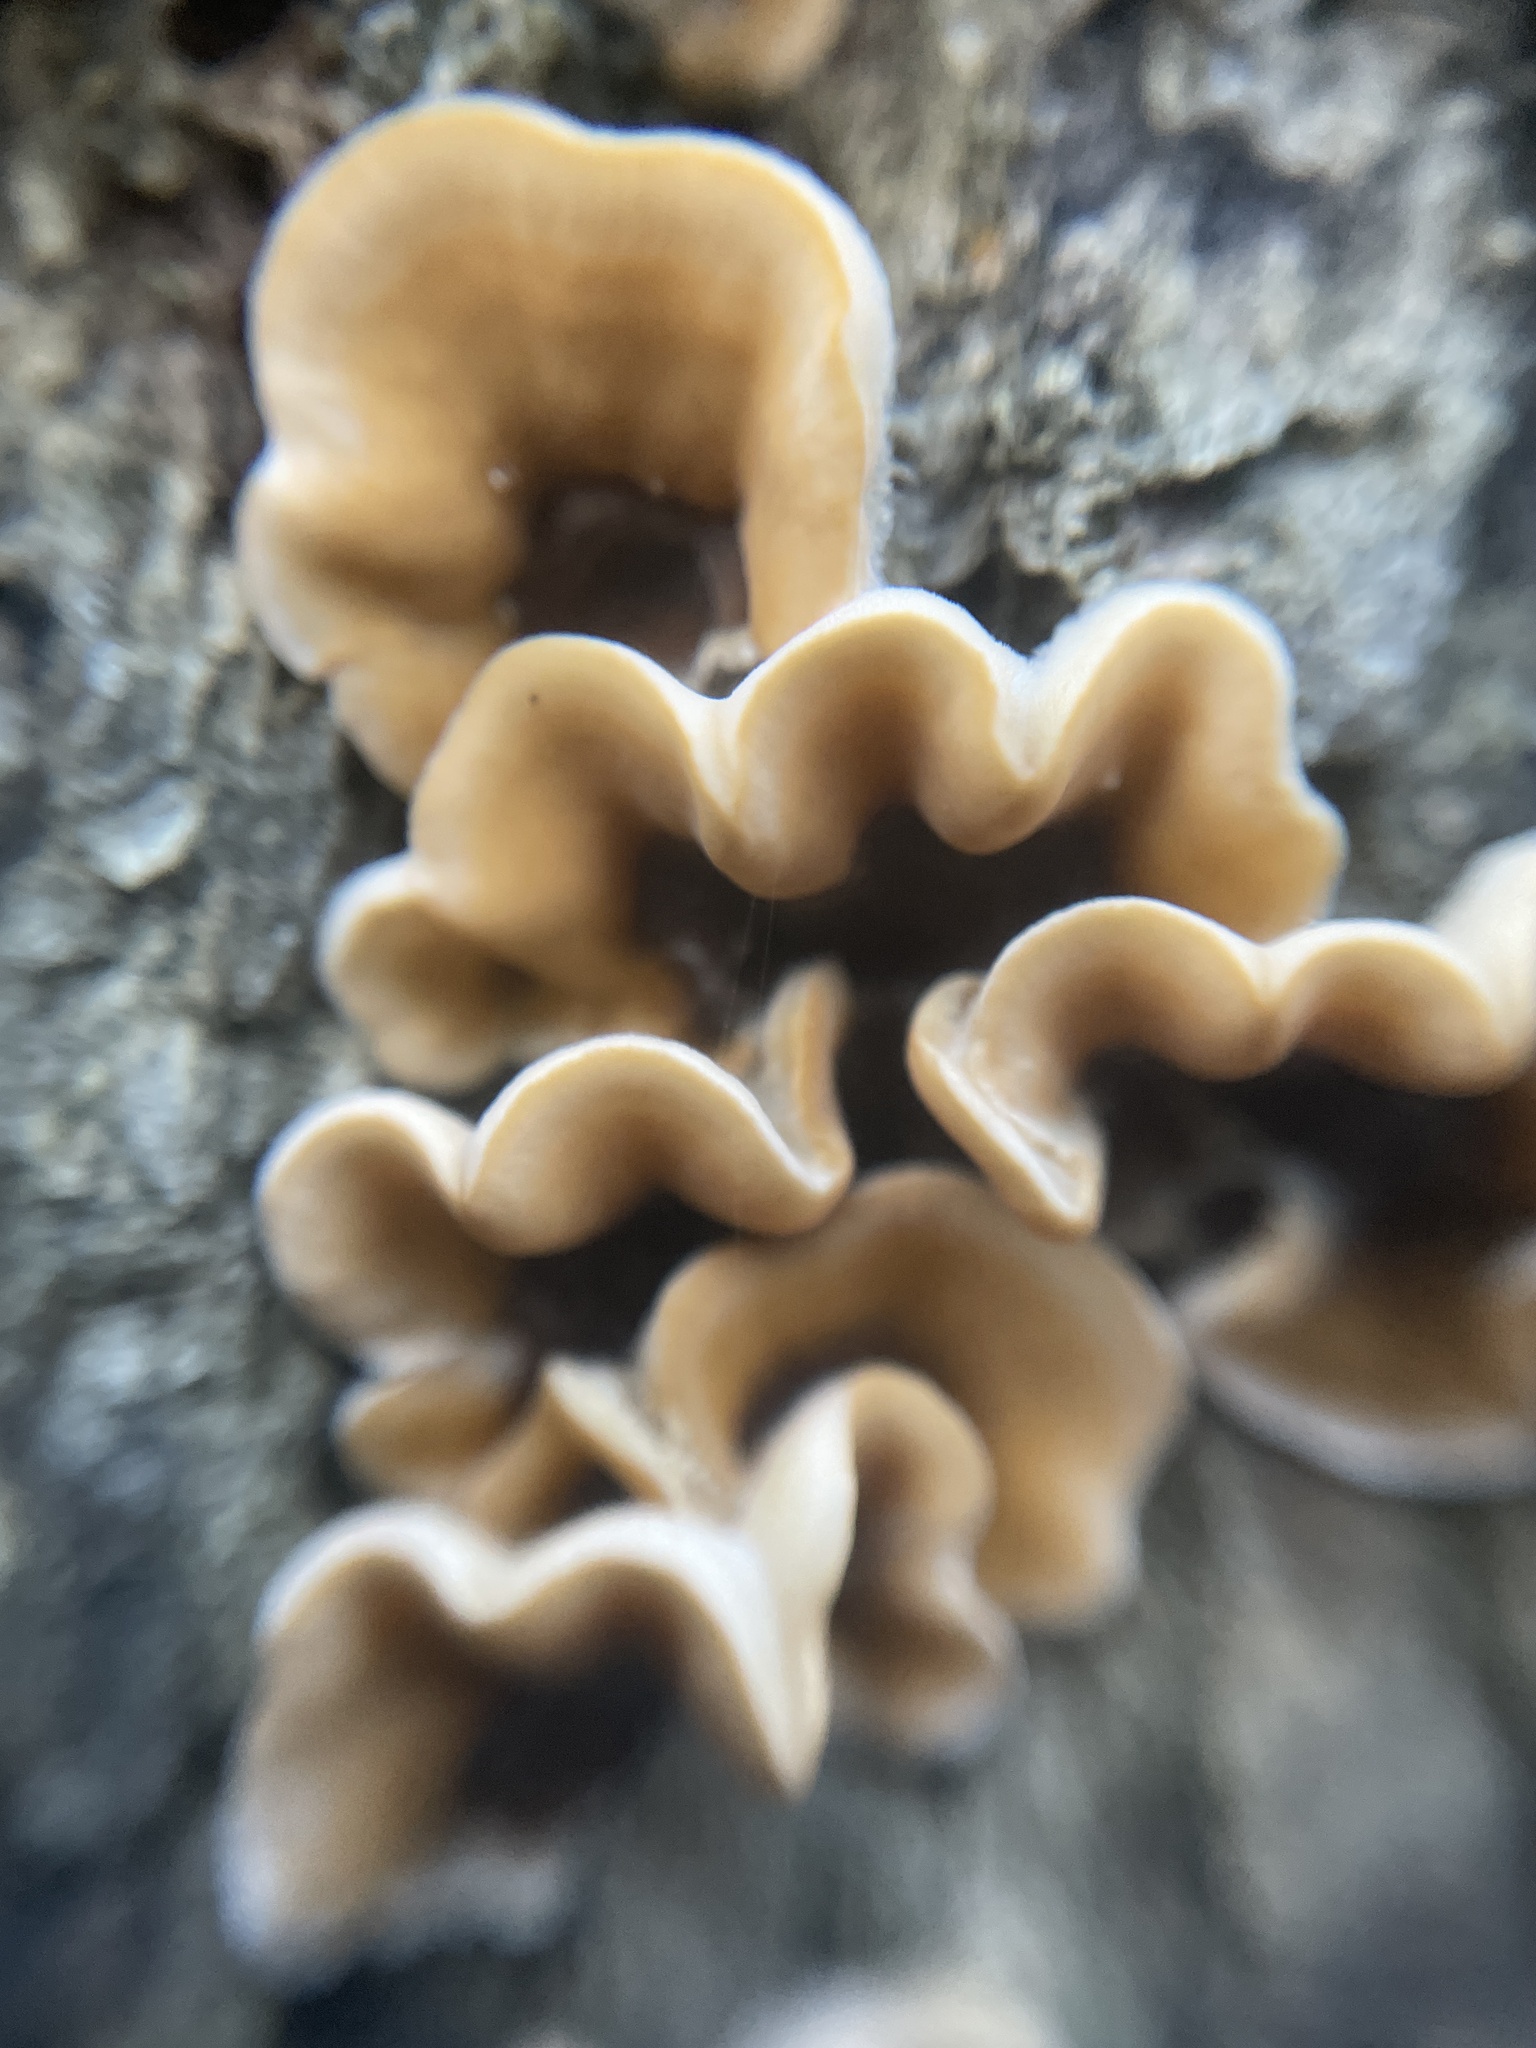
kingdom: Fungi
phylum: Basidiomycota
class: Agaricomycetes
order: Russulales
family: Stereaceae
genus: Stereum
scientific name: Stereum hirsutum
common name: Hairy curtain crust
